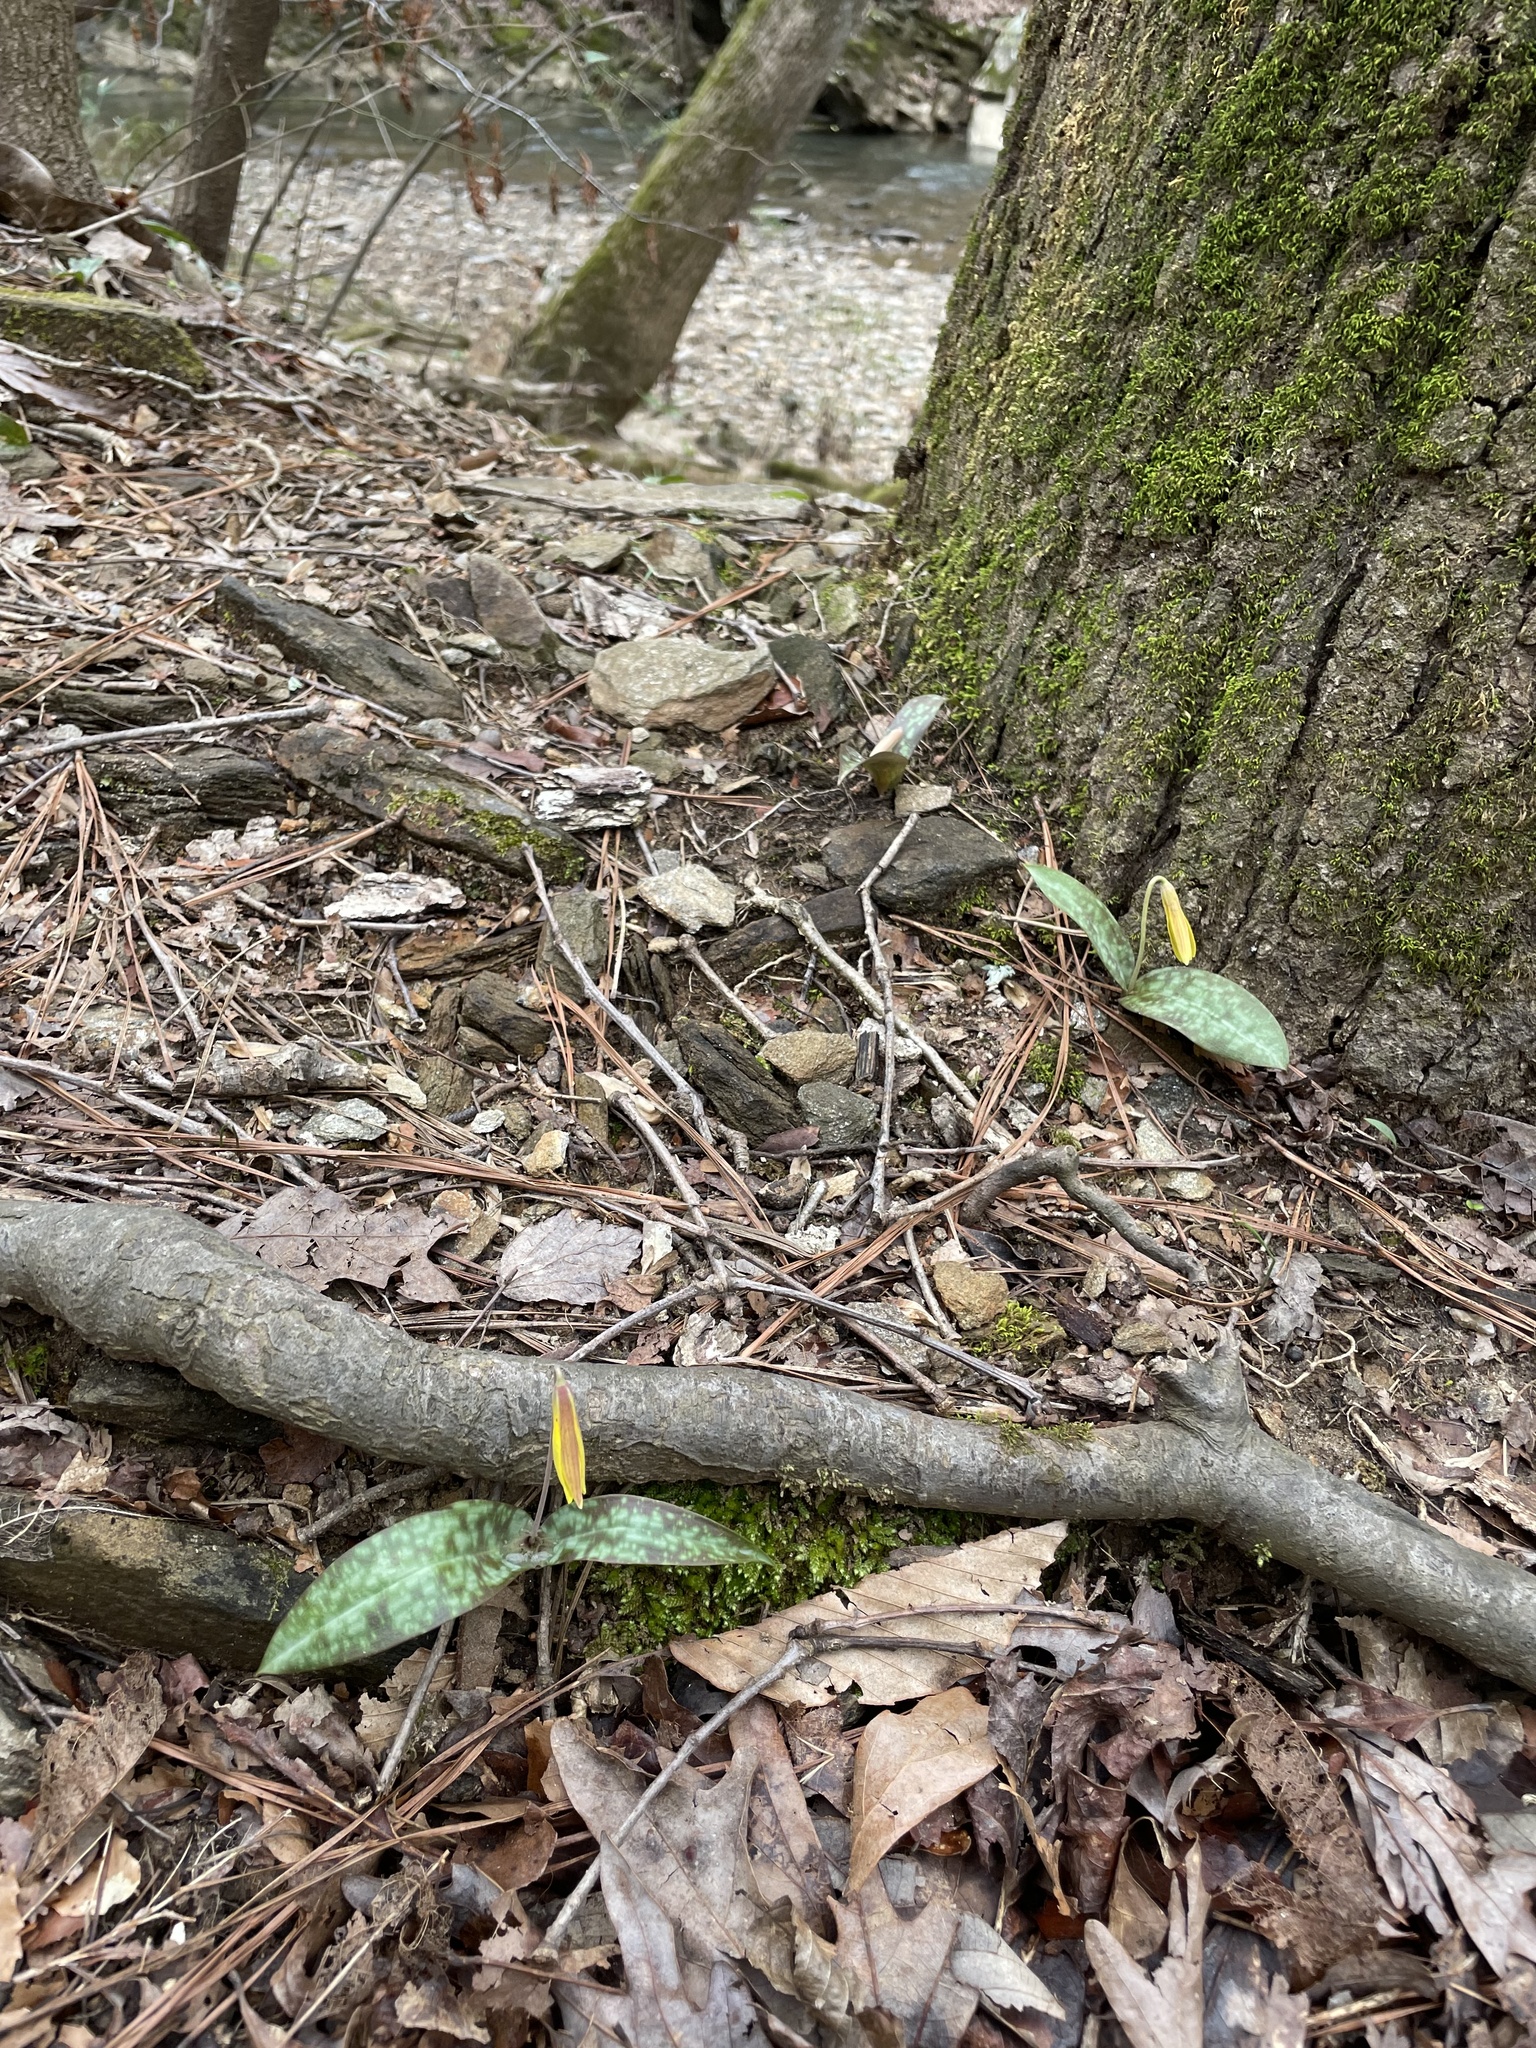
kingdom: Plantae
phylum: Tracheophyta
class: Liliopsida
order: Liliales
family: Liliaceae
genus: Erythronium
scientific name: Erythronium umbilicatum
